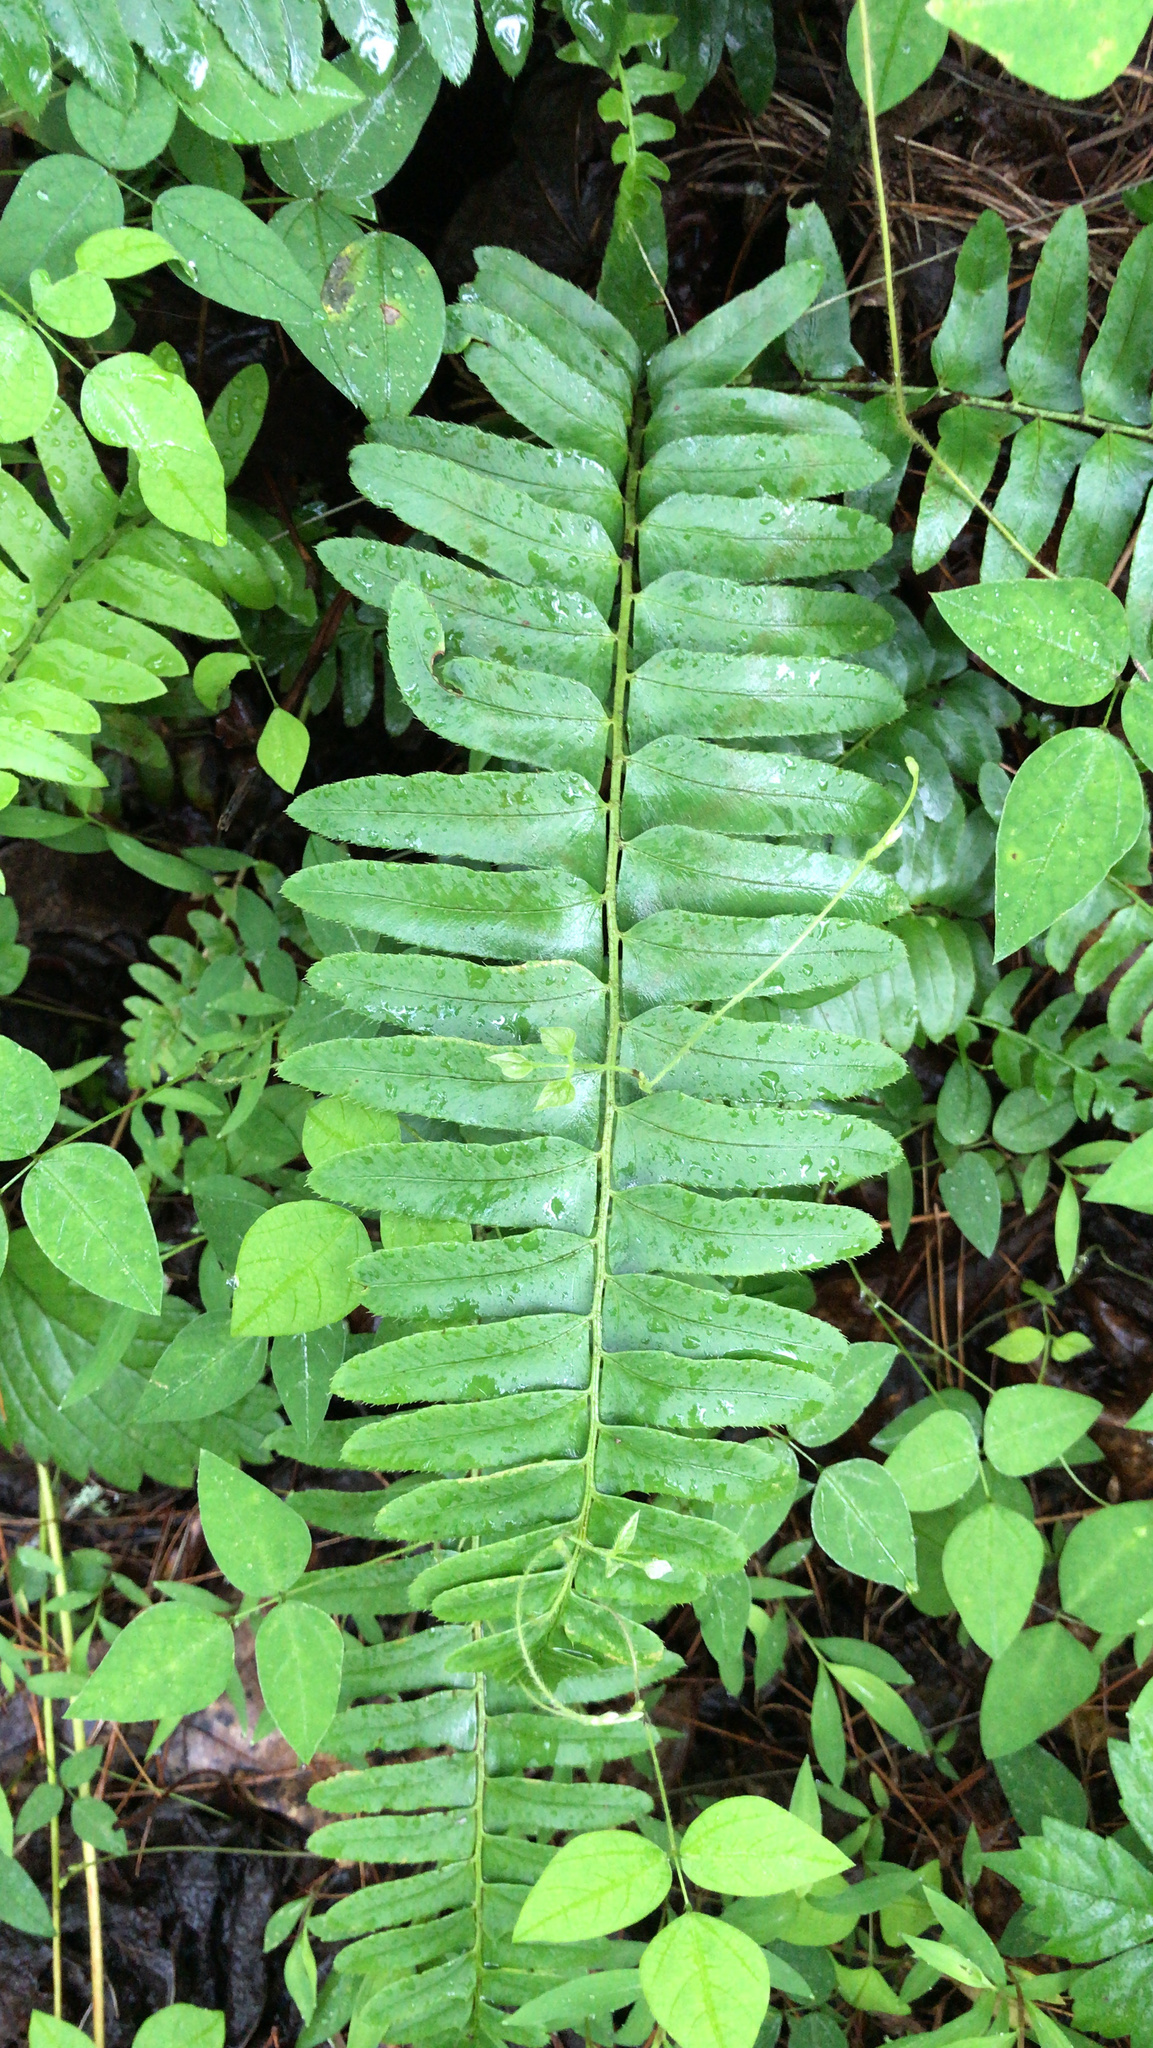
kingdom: Plantae
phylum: Tracheophyta
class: Polypodiopsida
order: Polypodiales
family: Dryopteridaceae
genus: Polystichum
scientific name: Polystichum acrostichoides
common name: Christmas fern
